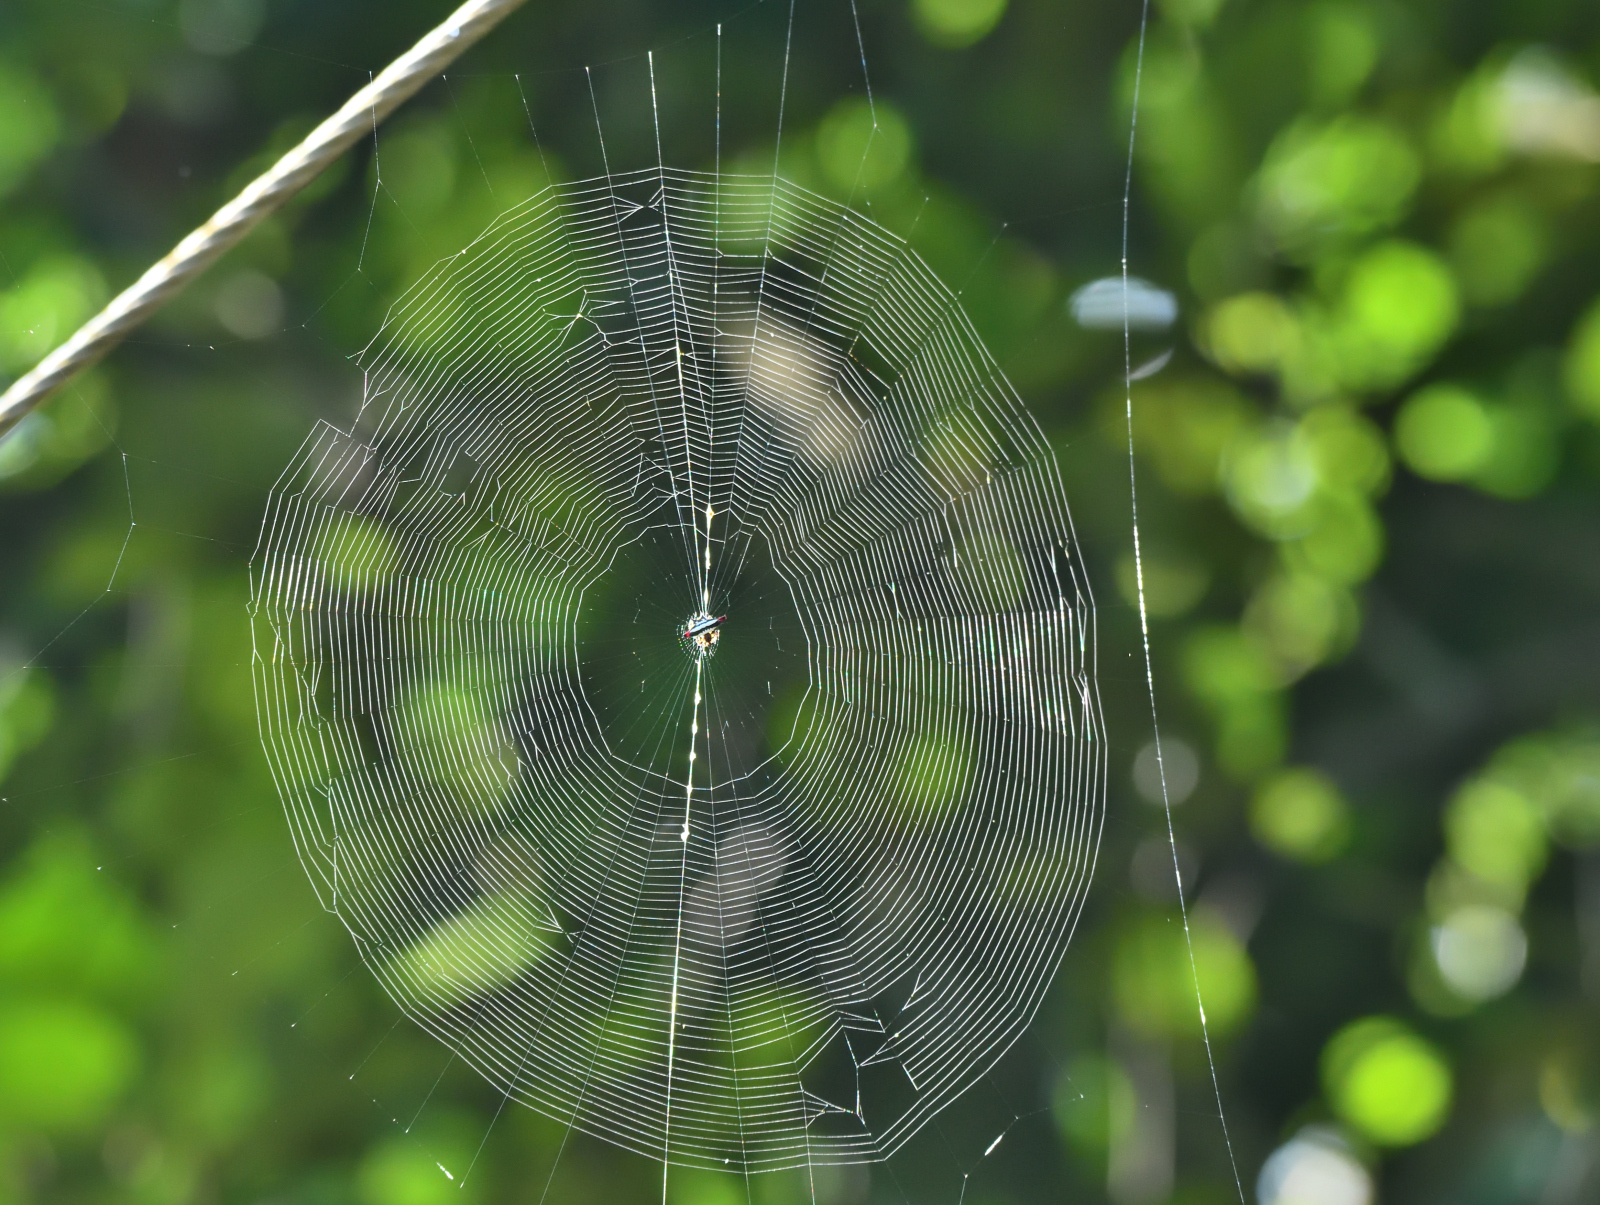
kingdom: Animalia
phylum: Arthropoda
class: Arachnida
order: Araneae
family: Araneidae
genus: Gasteracantha
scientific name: Gasteracantha geminata
